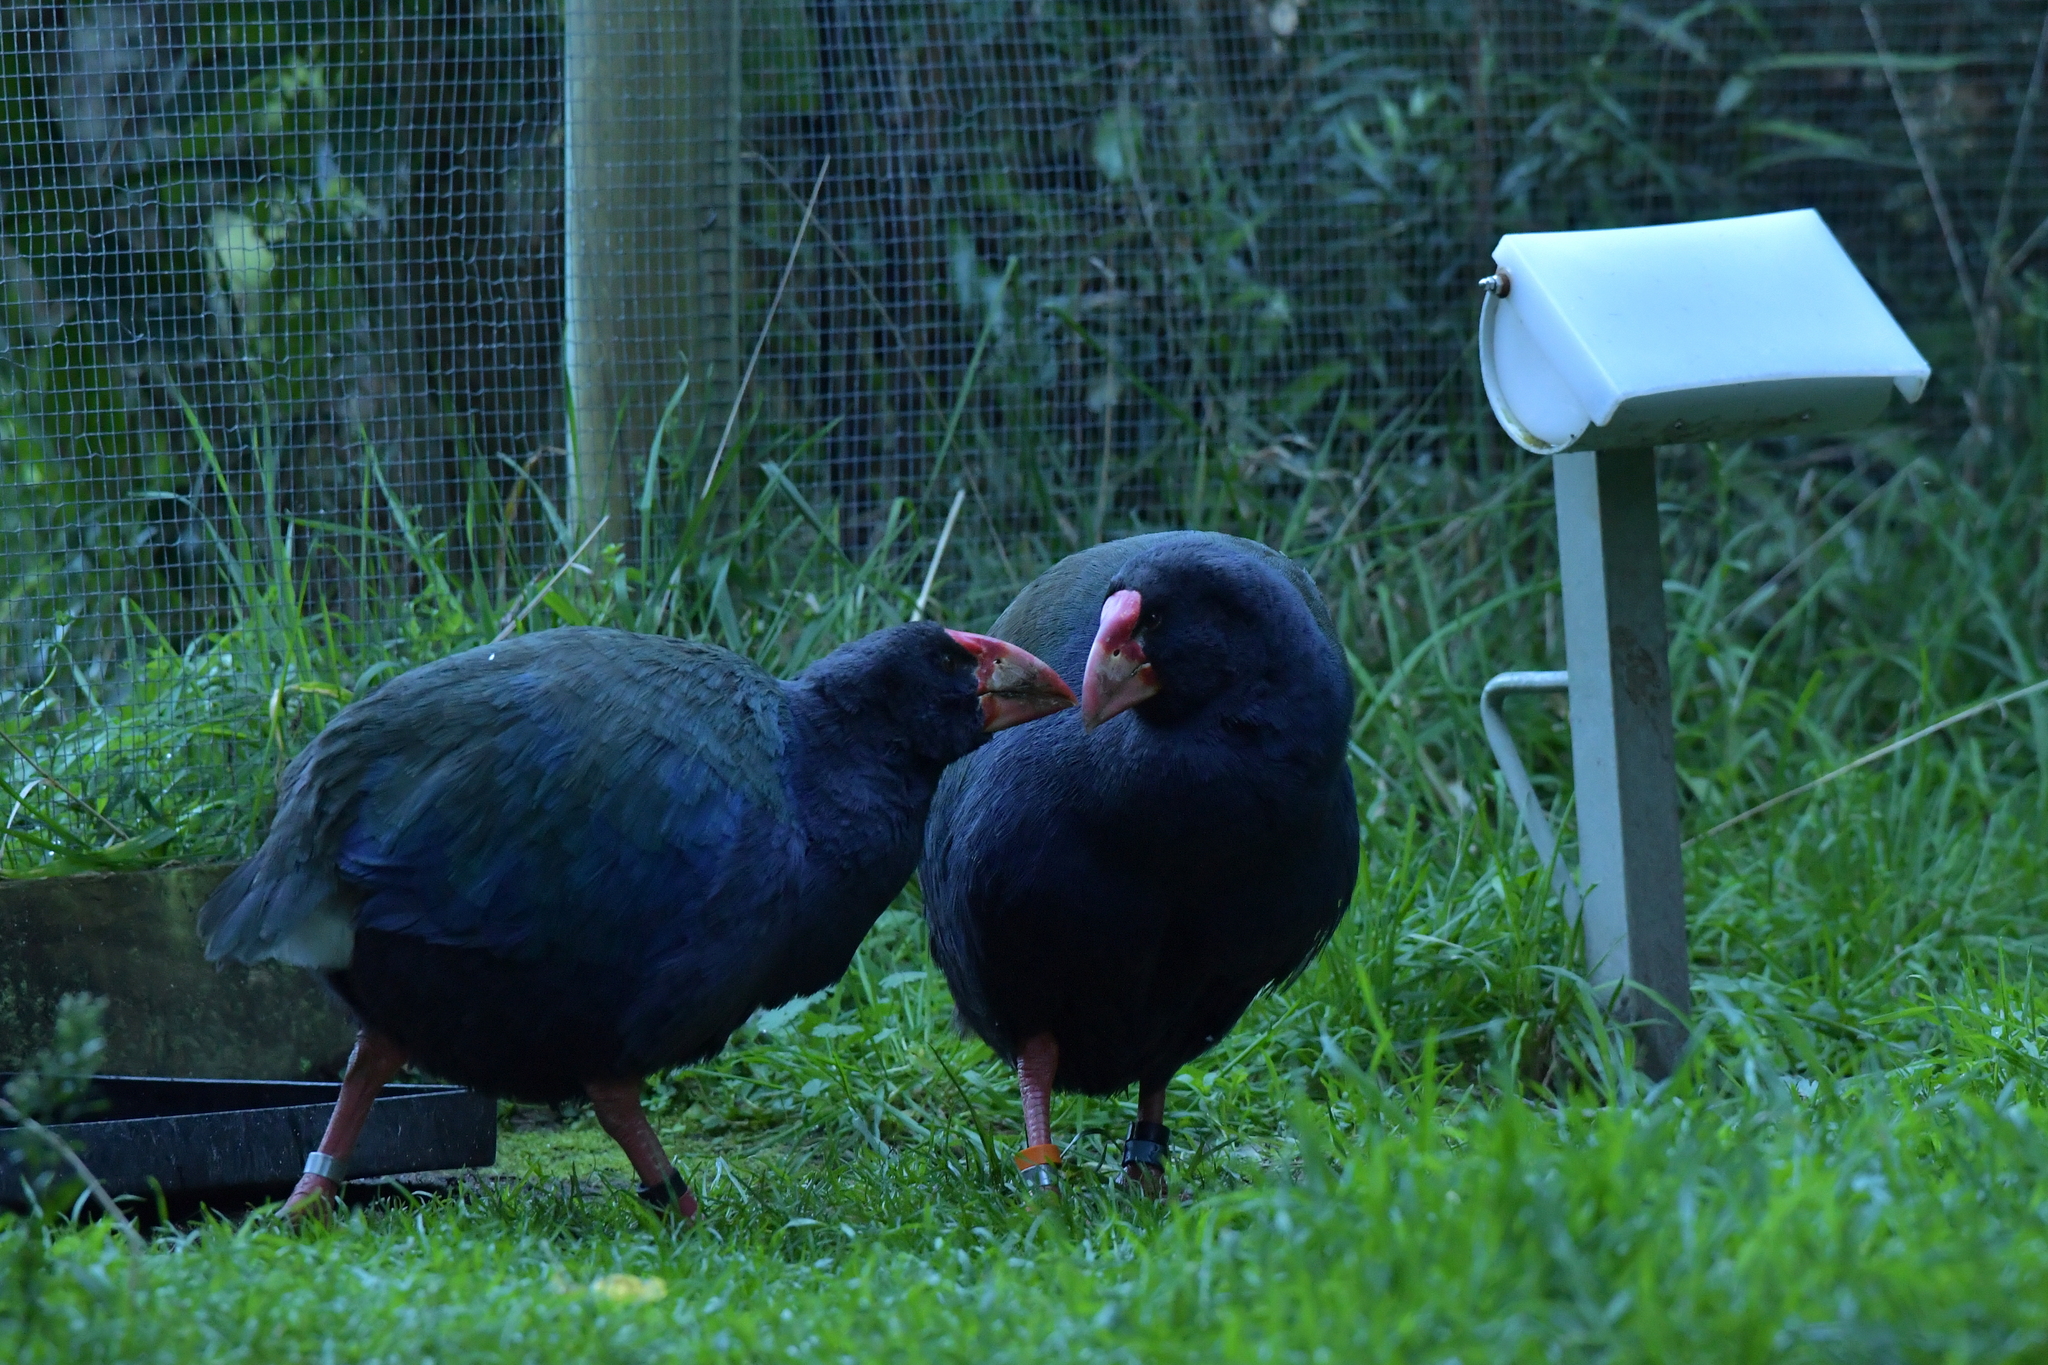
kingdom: Animalia
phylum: Chordata
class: Aves
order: Gruiformes
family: Rallidae
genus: Porphyrio
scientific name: Porphyrio hochstetteri
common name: South island takahe
